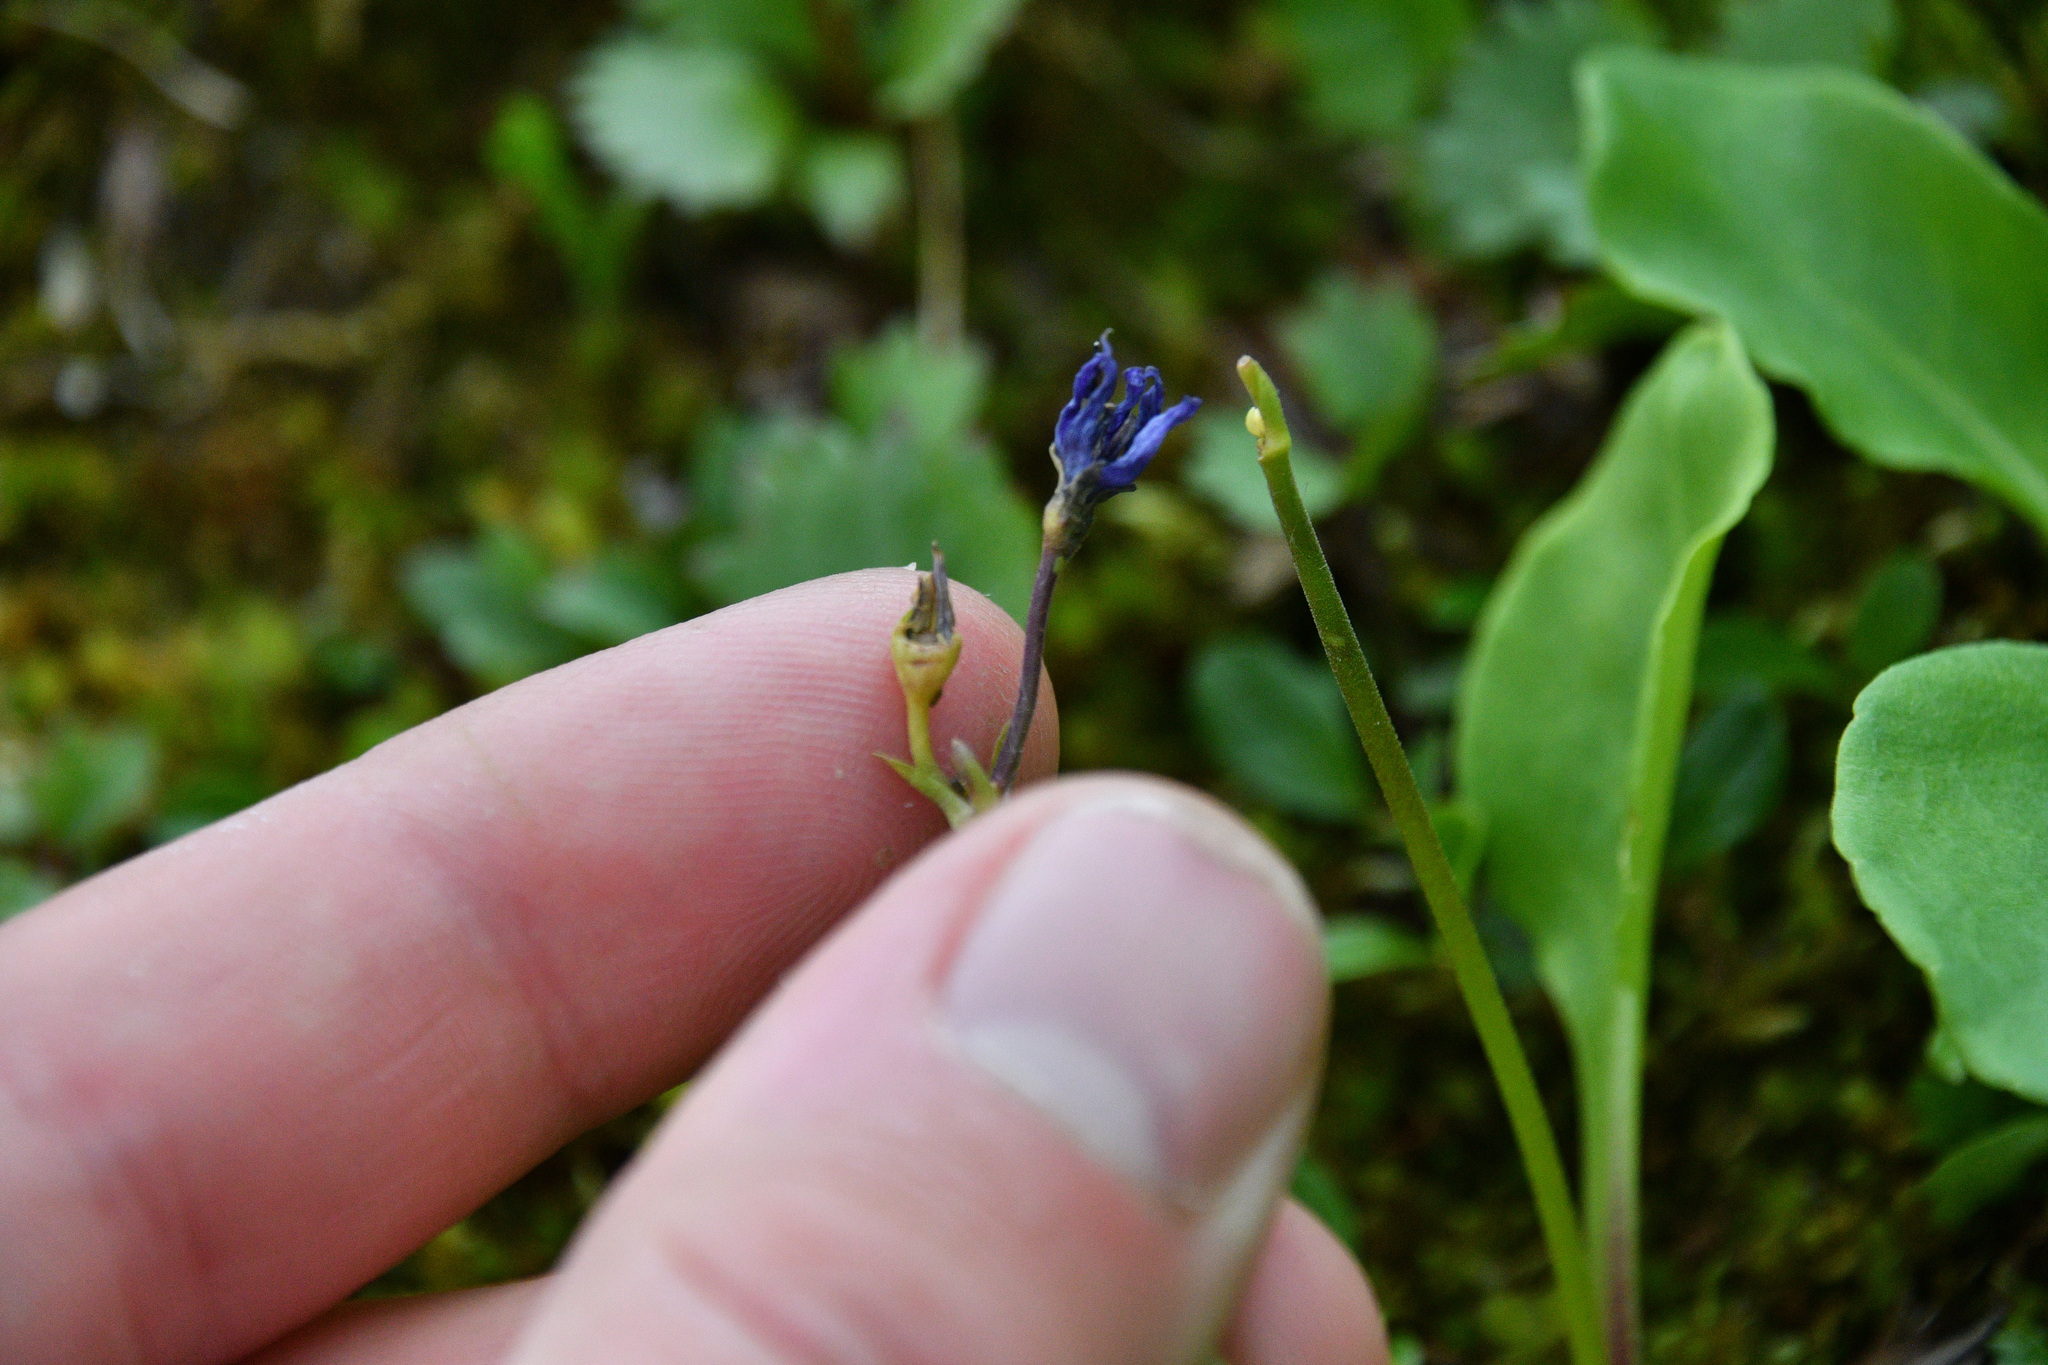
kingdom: Plantae
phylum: Tracheophyta
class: Magnoliopsida
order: Ericales
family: Primulaceae
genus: Dodecatheon
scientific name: Dodecatheon frigidum
